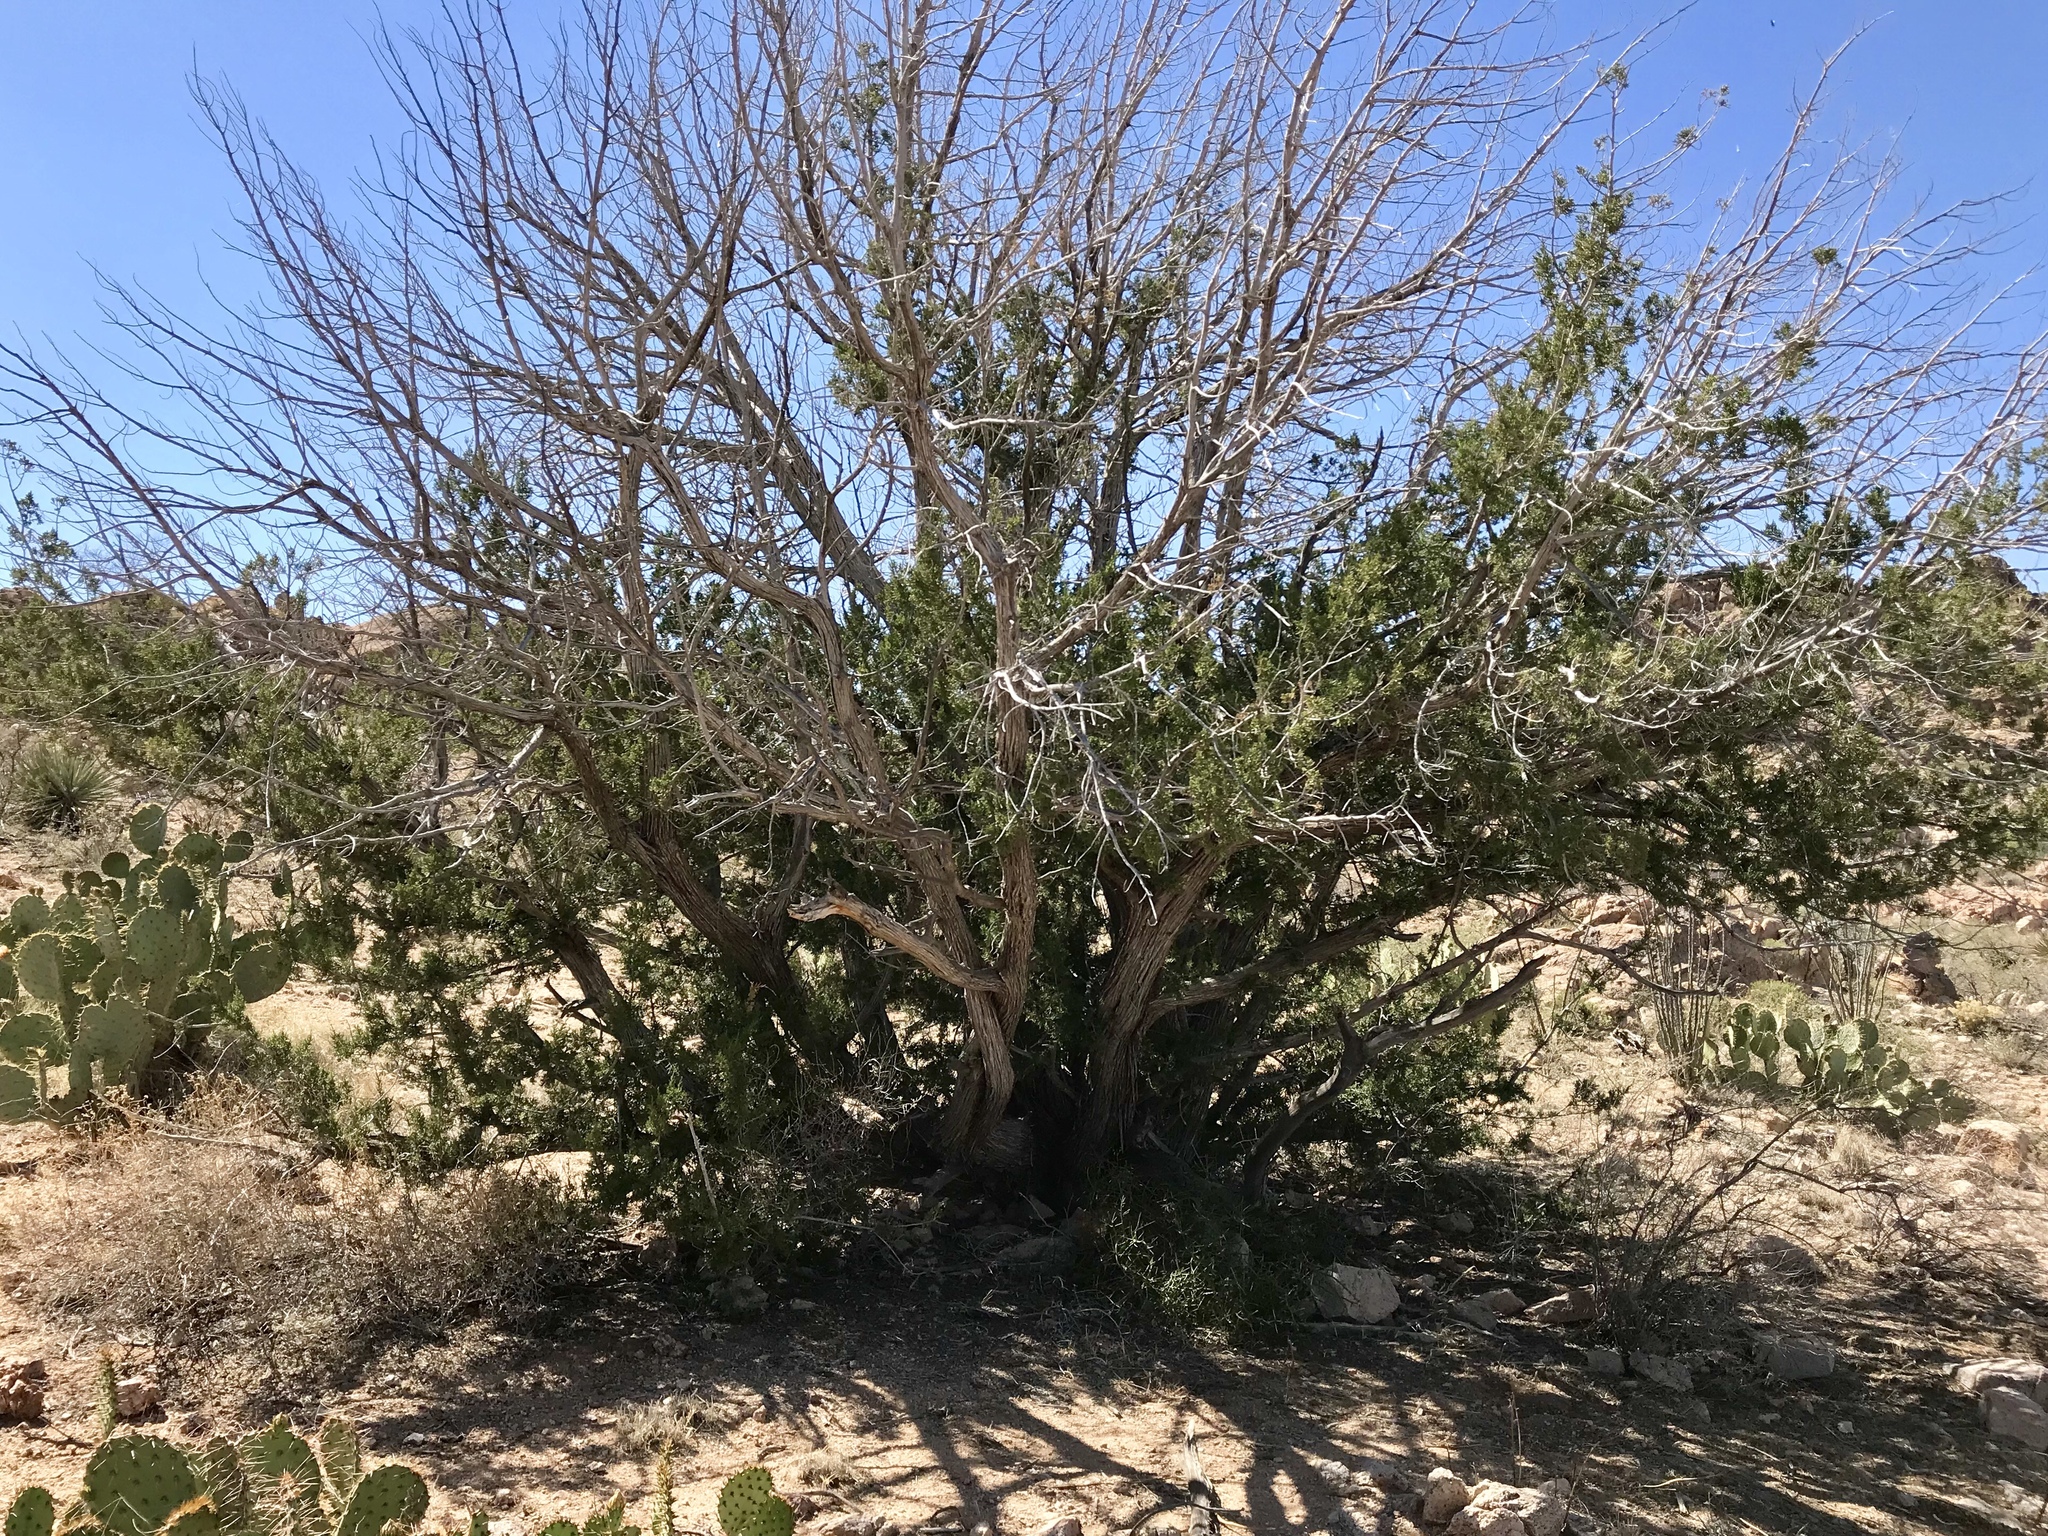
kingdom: Plantae
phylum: Tracheophyta
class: Pinopsida
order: Pinales
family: Cupressaceae
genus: Juniperus
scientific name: Juniperus monosperma
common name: One-seed juniper
